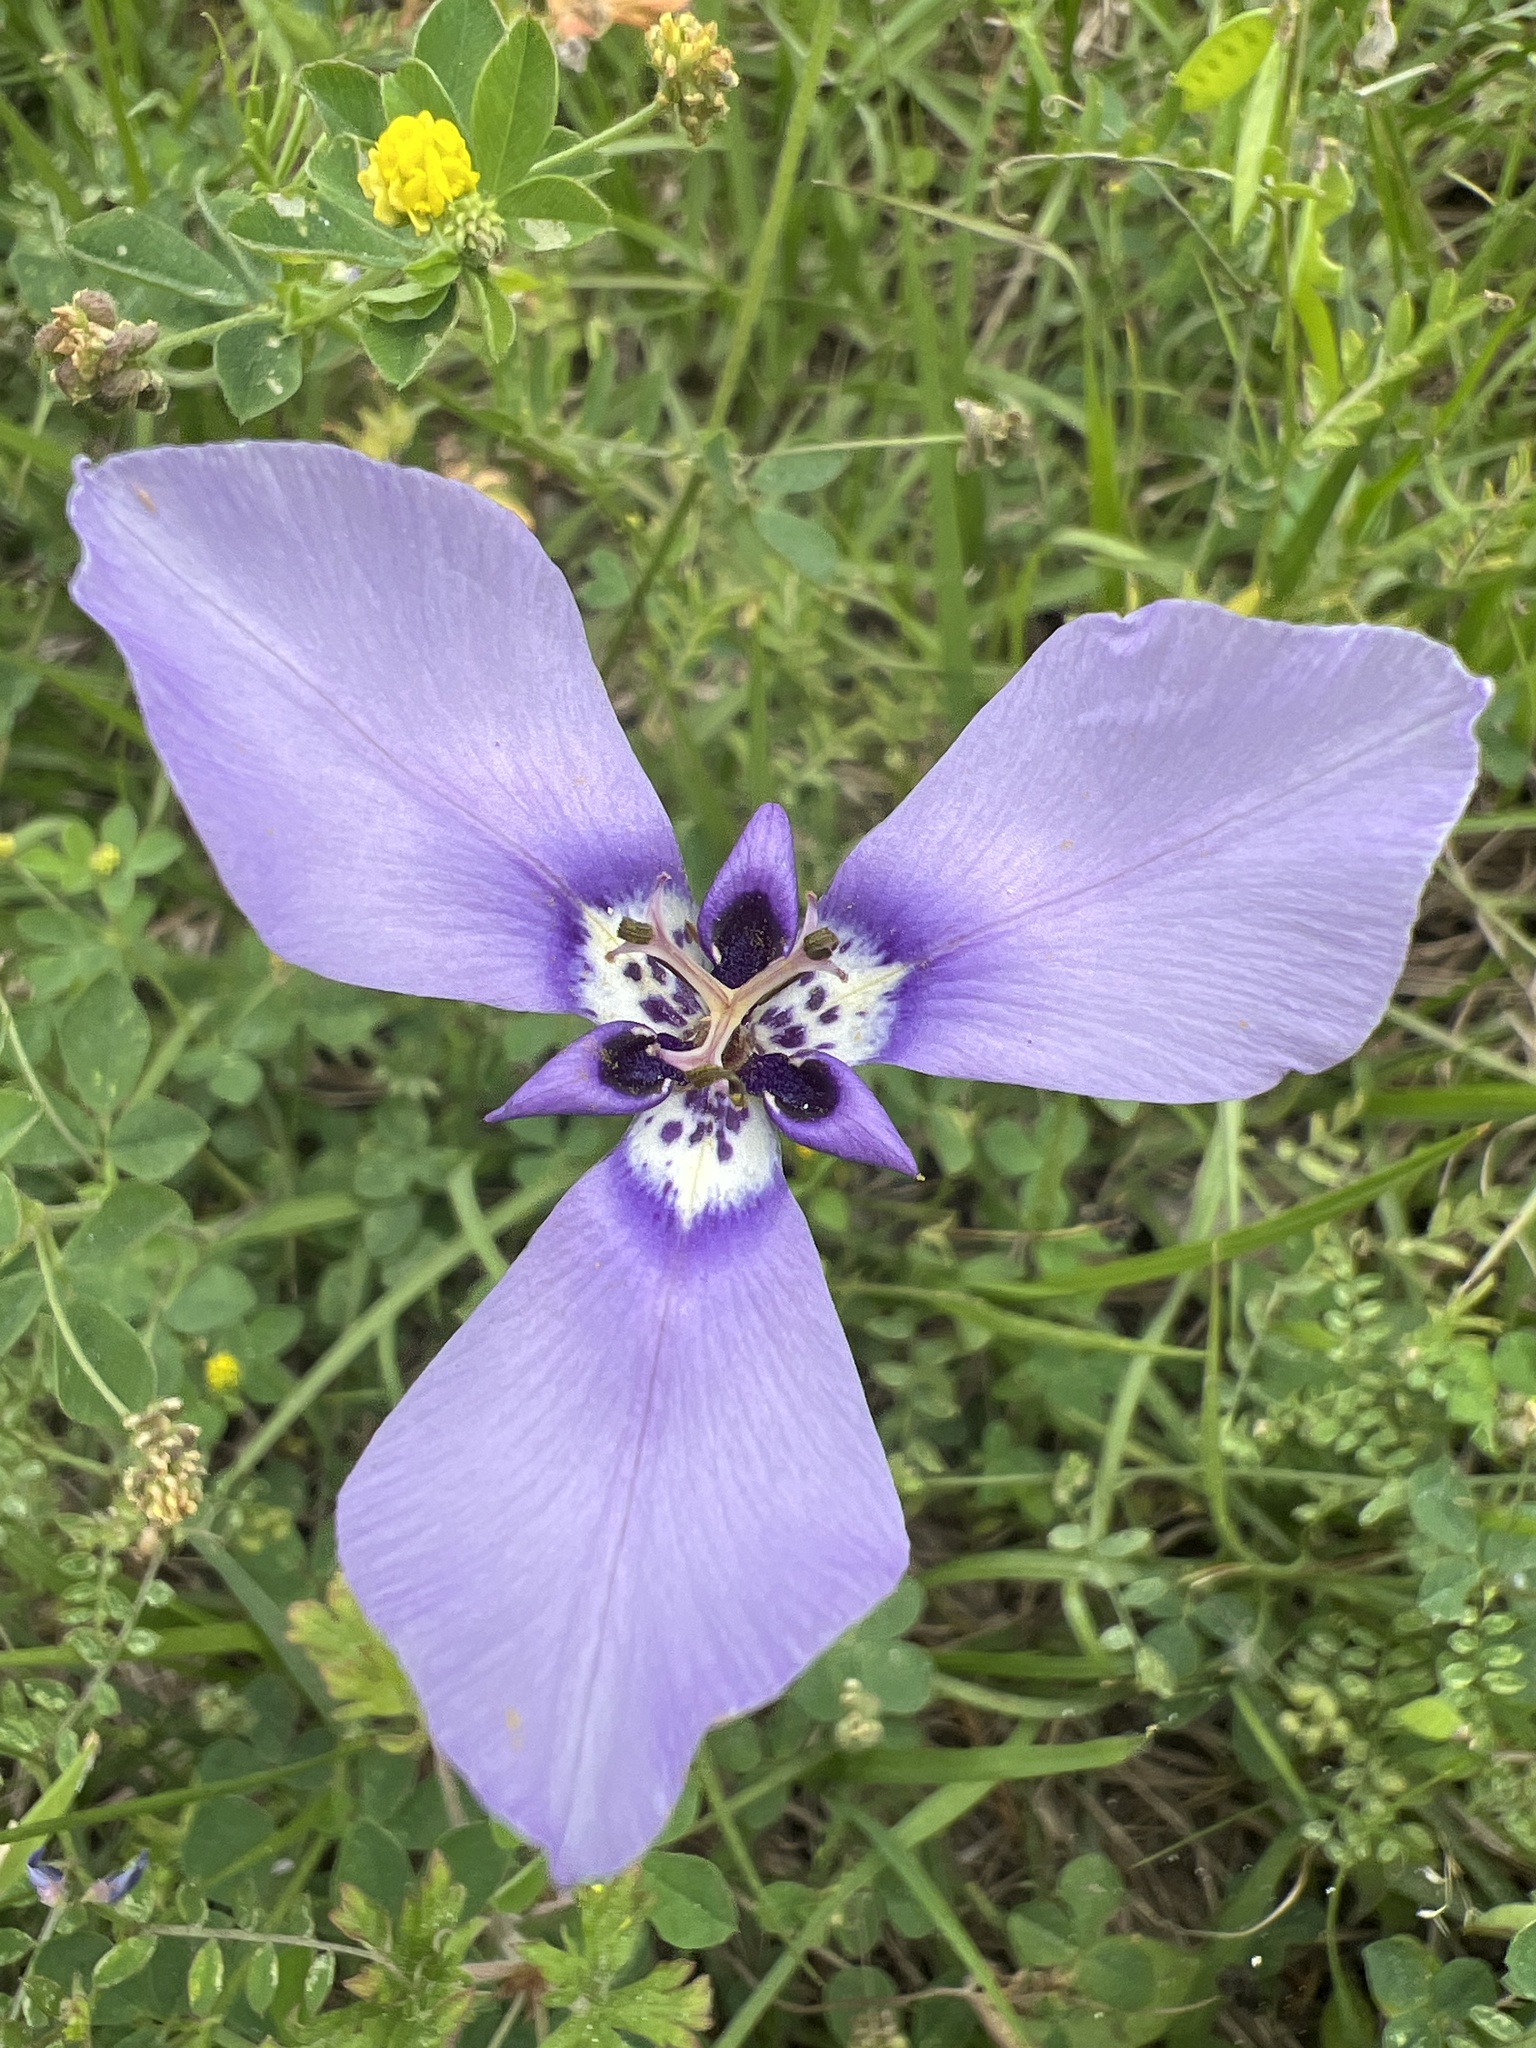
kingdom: Plantae
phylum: Tracheophyta
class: Liliopsida
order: Asparagales
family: Iridaceae
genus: Herbertia
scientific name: Herbertia lahue
